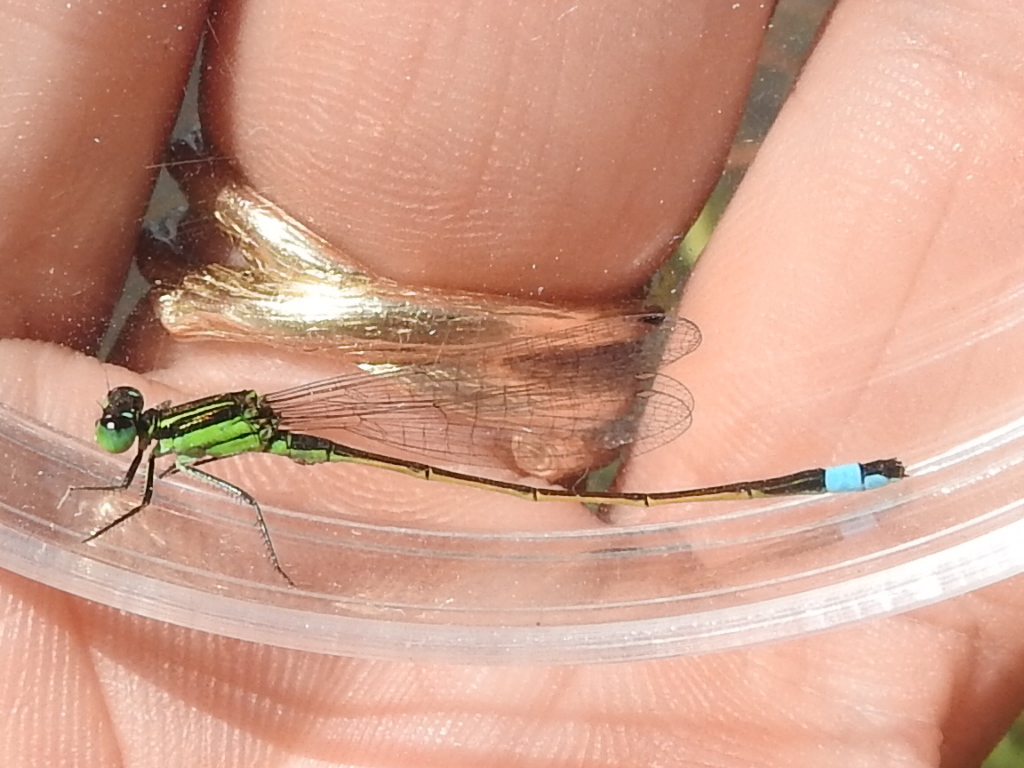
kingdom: Animalia
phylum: Arthropoda
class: Insecta
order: Odonata
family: Coenagrionidae
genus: Ischnura
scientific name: Ischnura ramburii
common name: Rambur's forktail
